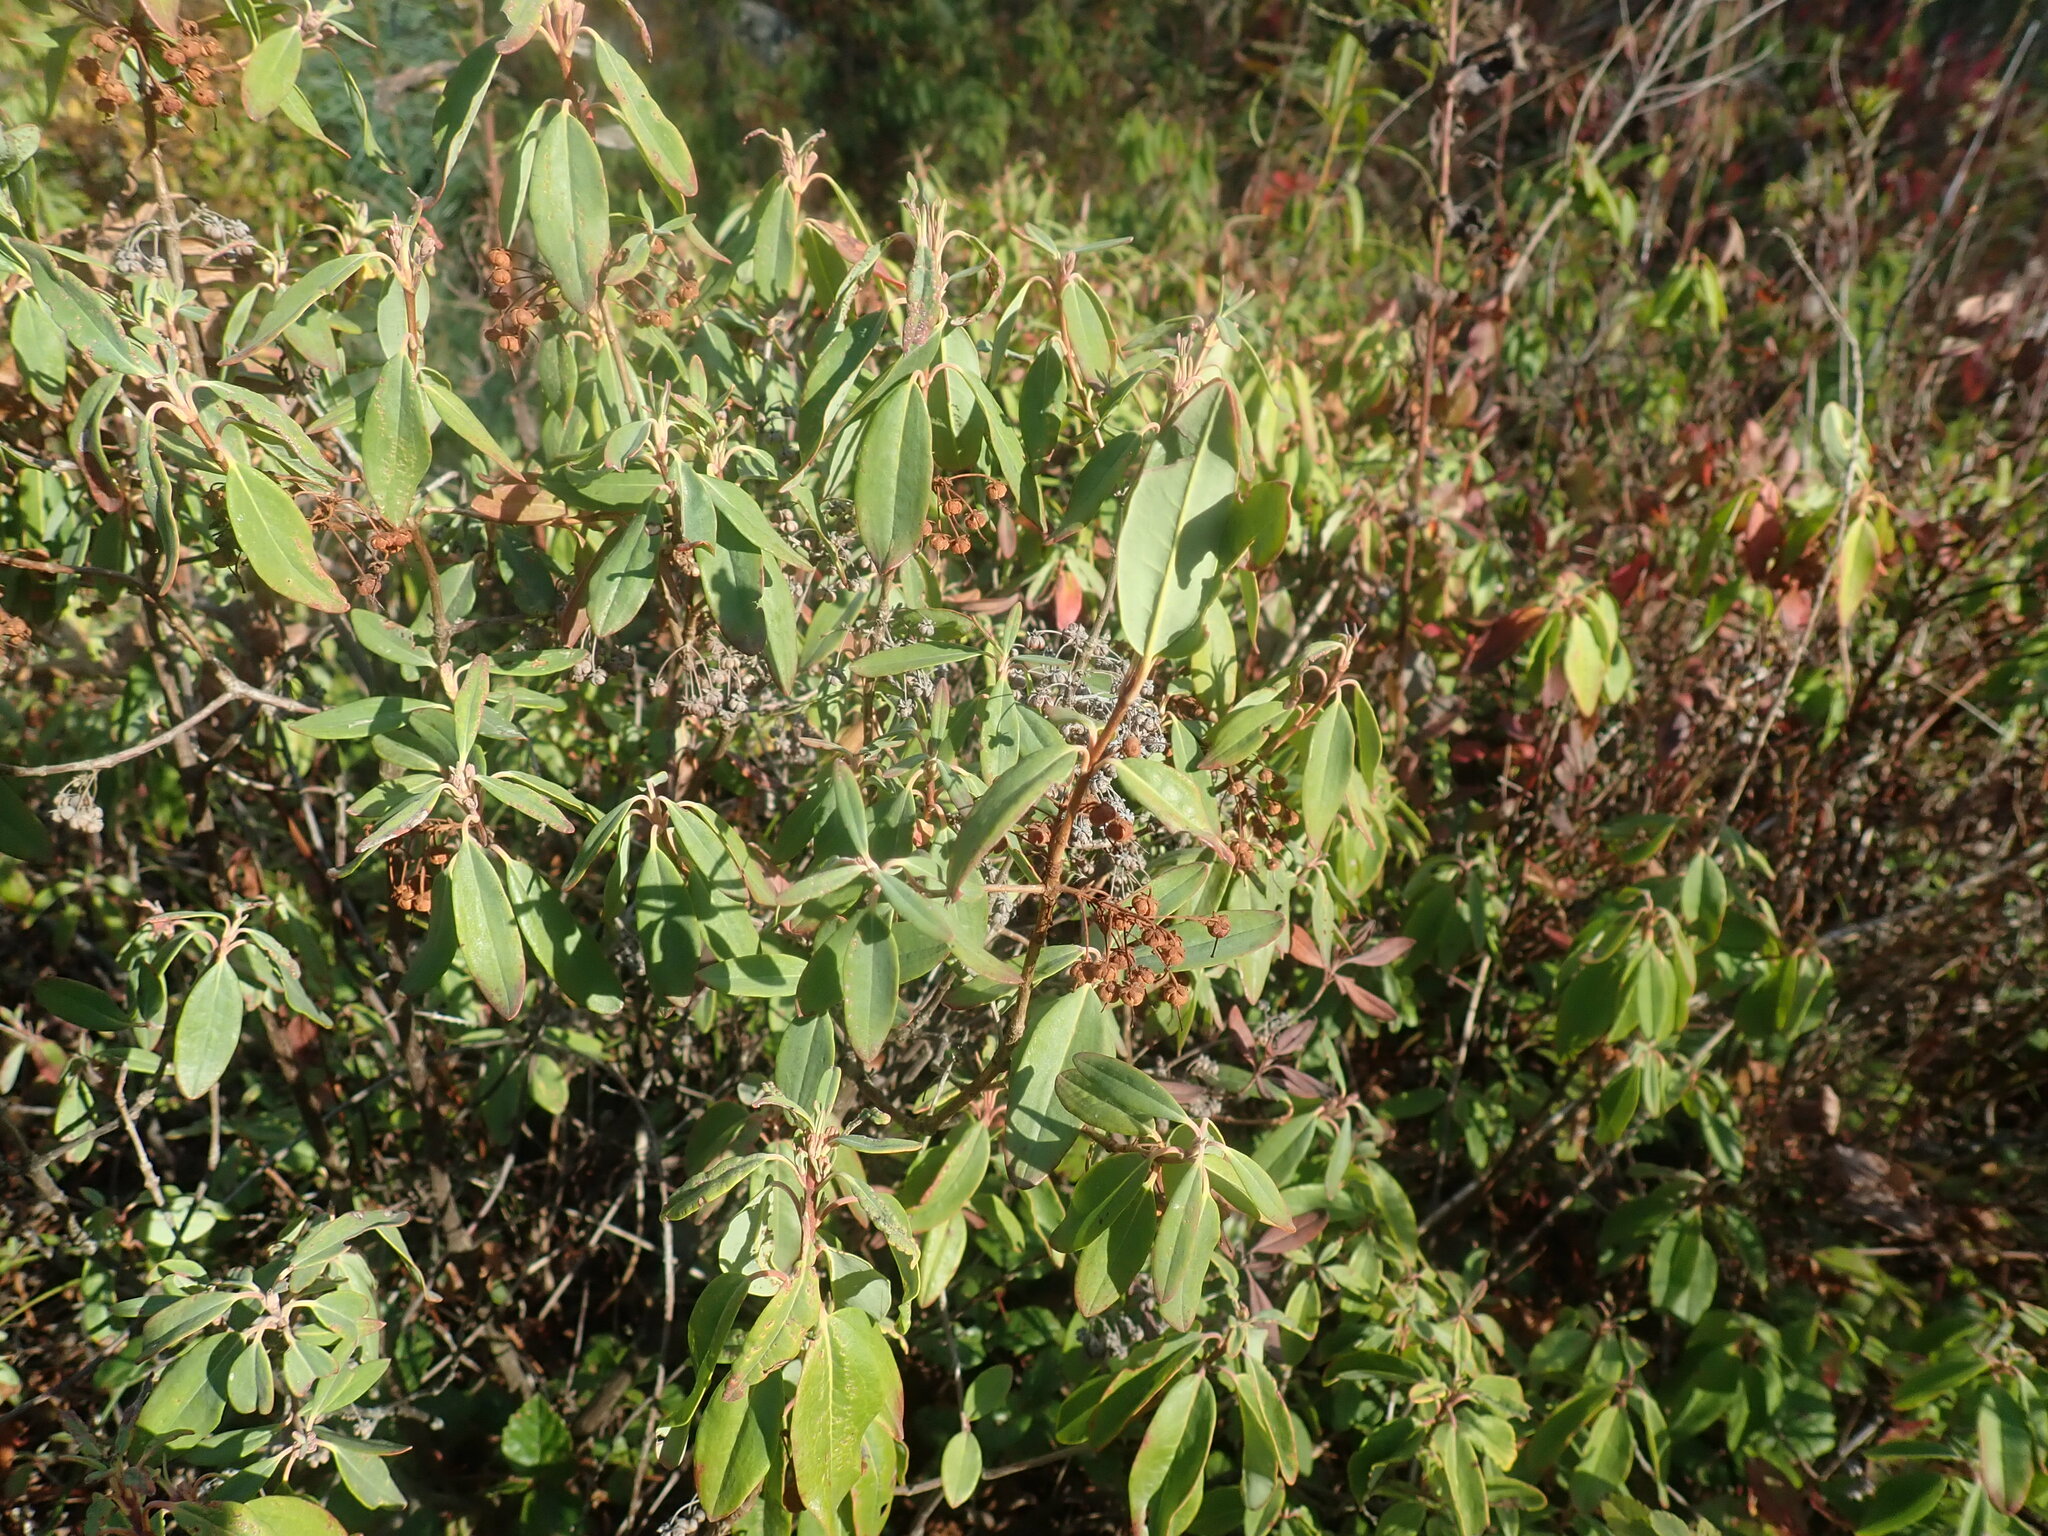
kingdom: Plantae
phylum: Tracheophyta
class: Magnoliopsida
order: Ericales
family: Ericaceae
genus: Kalmia
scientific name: Kalmia angustifolia
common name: Sheep-laurel
